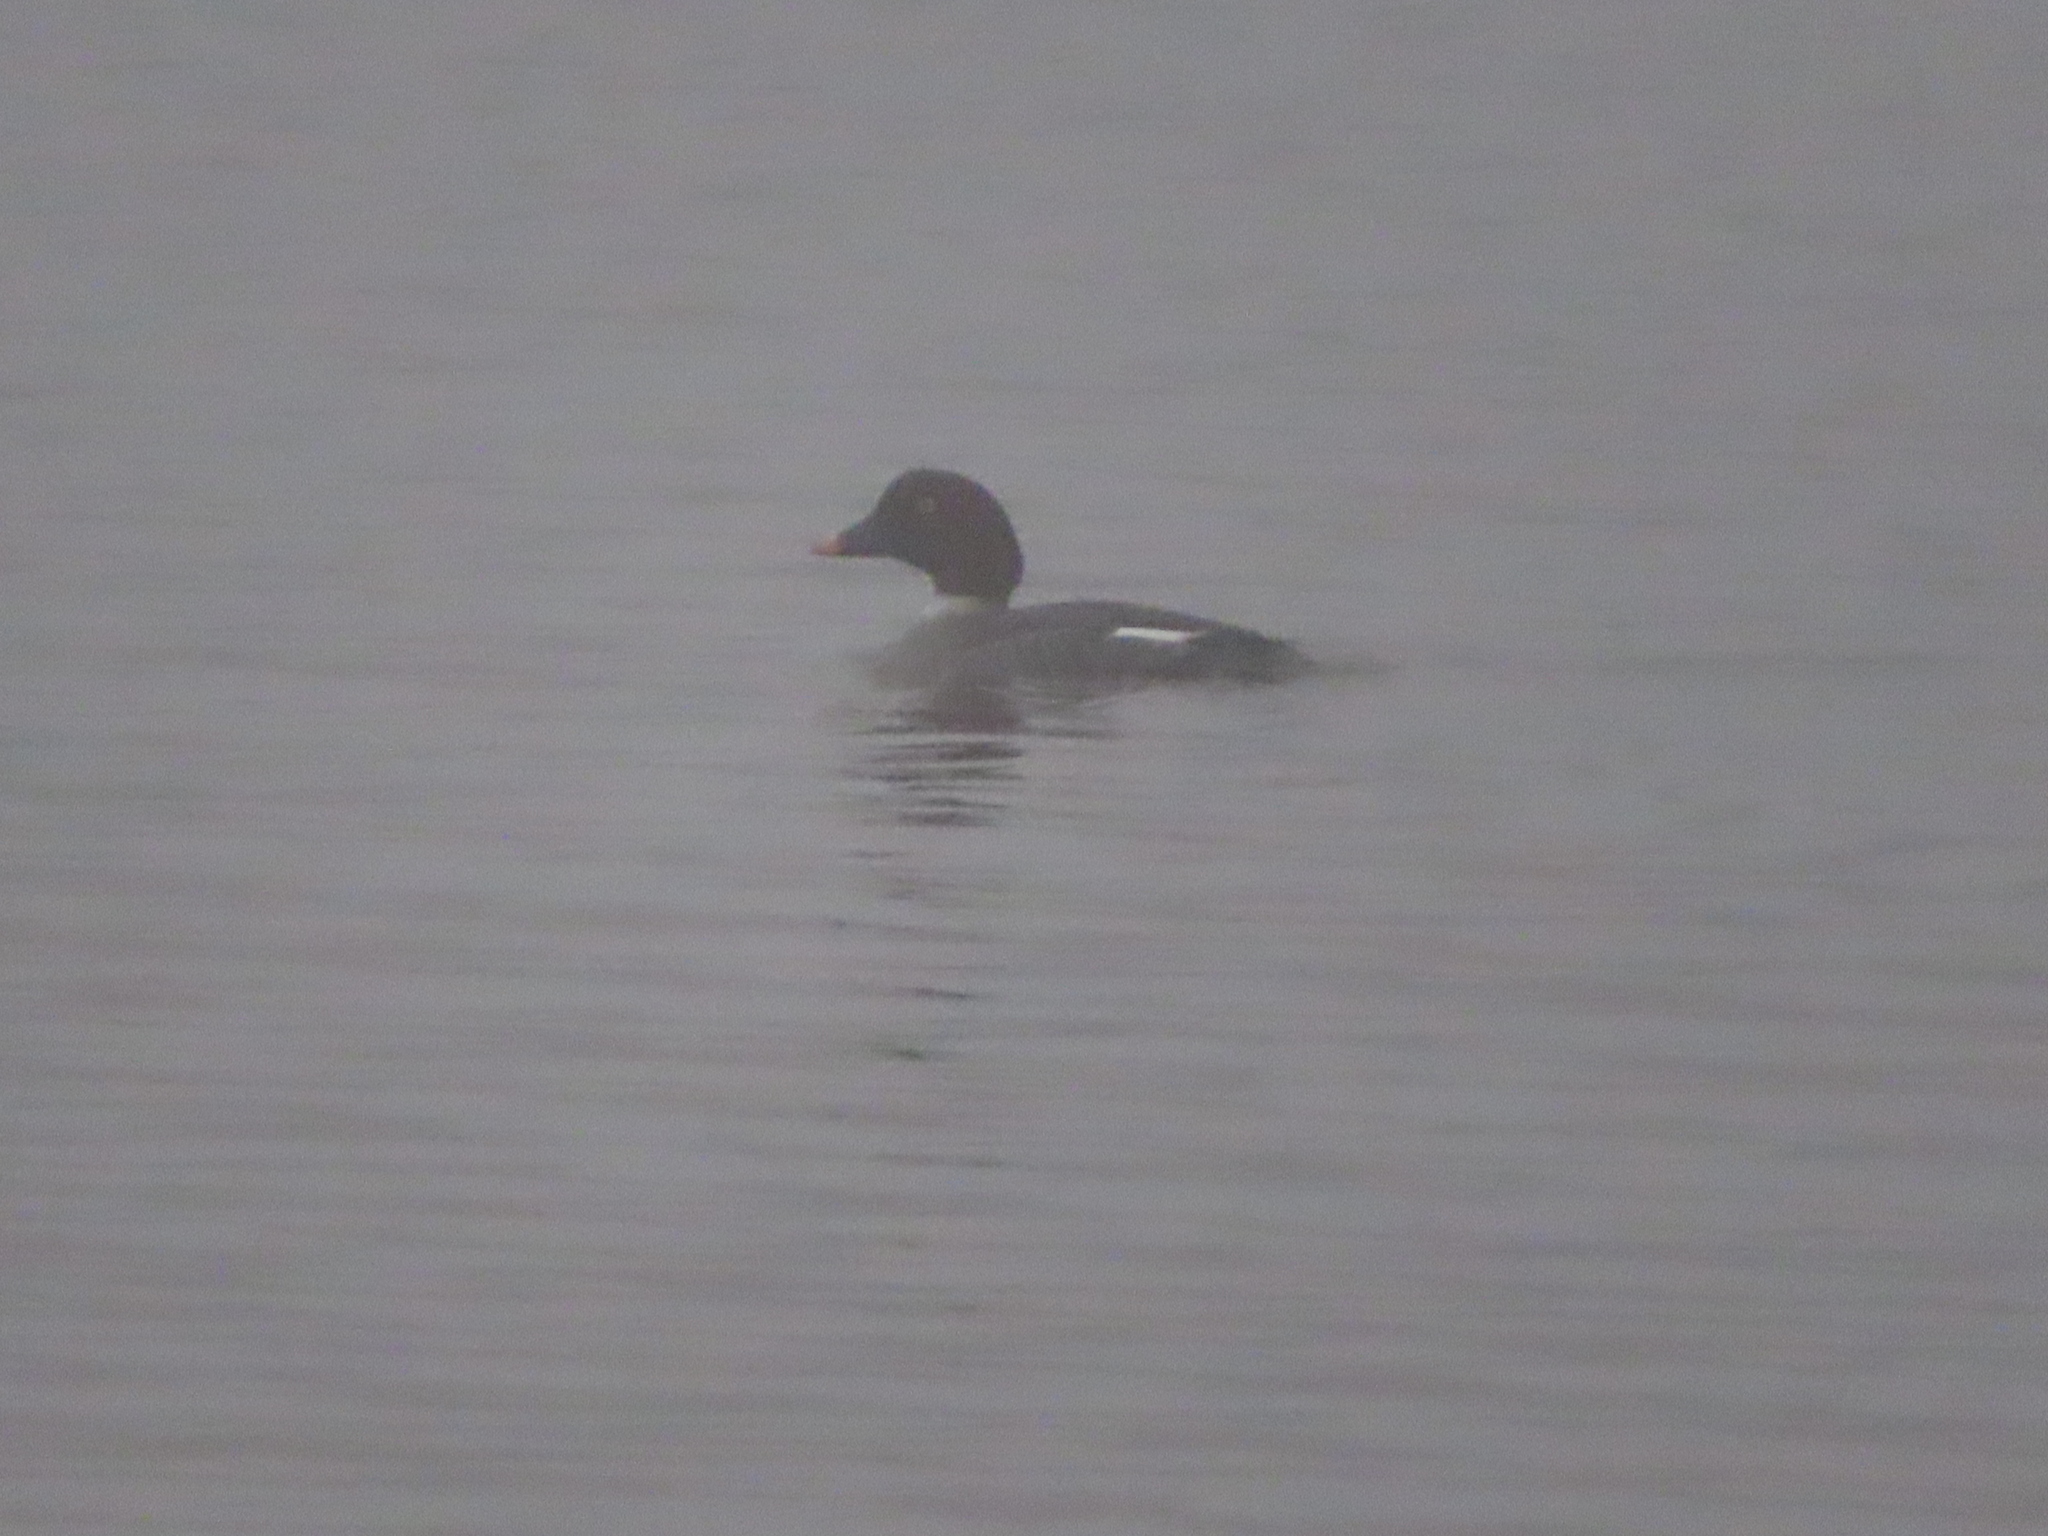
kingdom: Animalia
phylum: Chordata
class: Aves
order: Anseriformes
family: Anatidae
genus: Bucephala
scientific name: Bucephala clangula
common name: Common goldeneye
